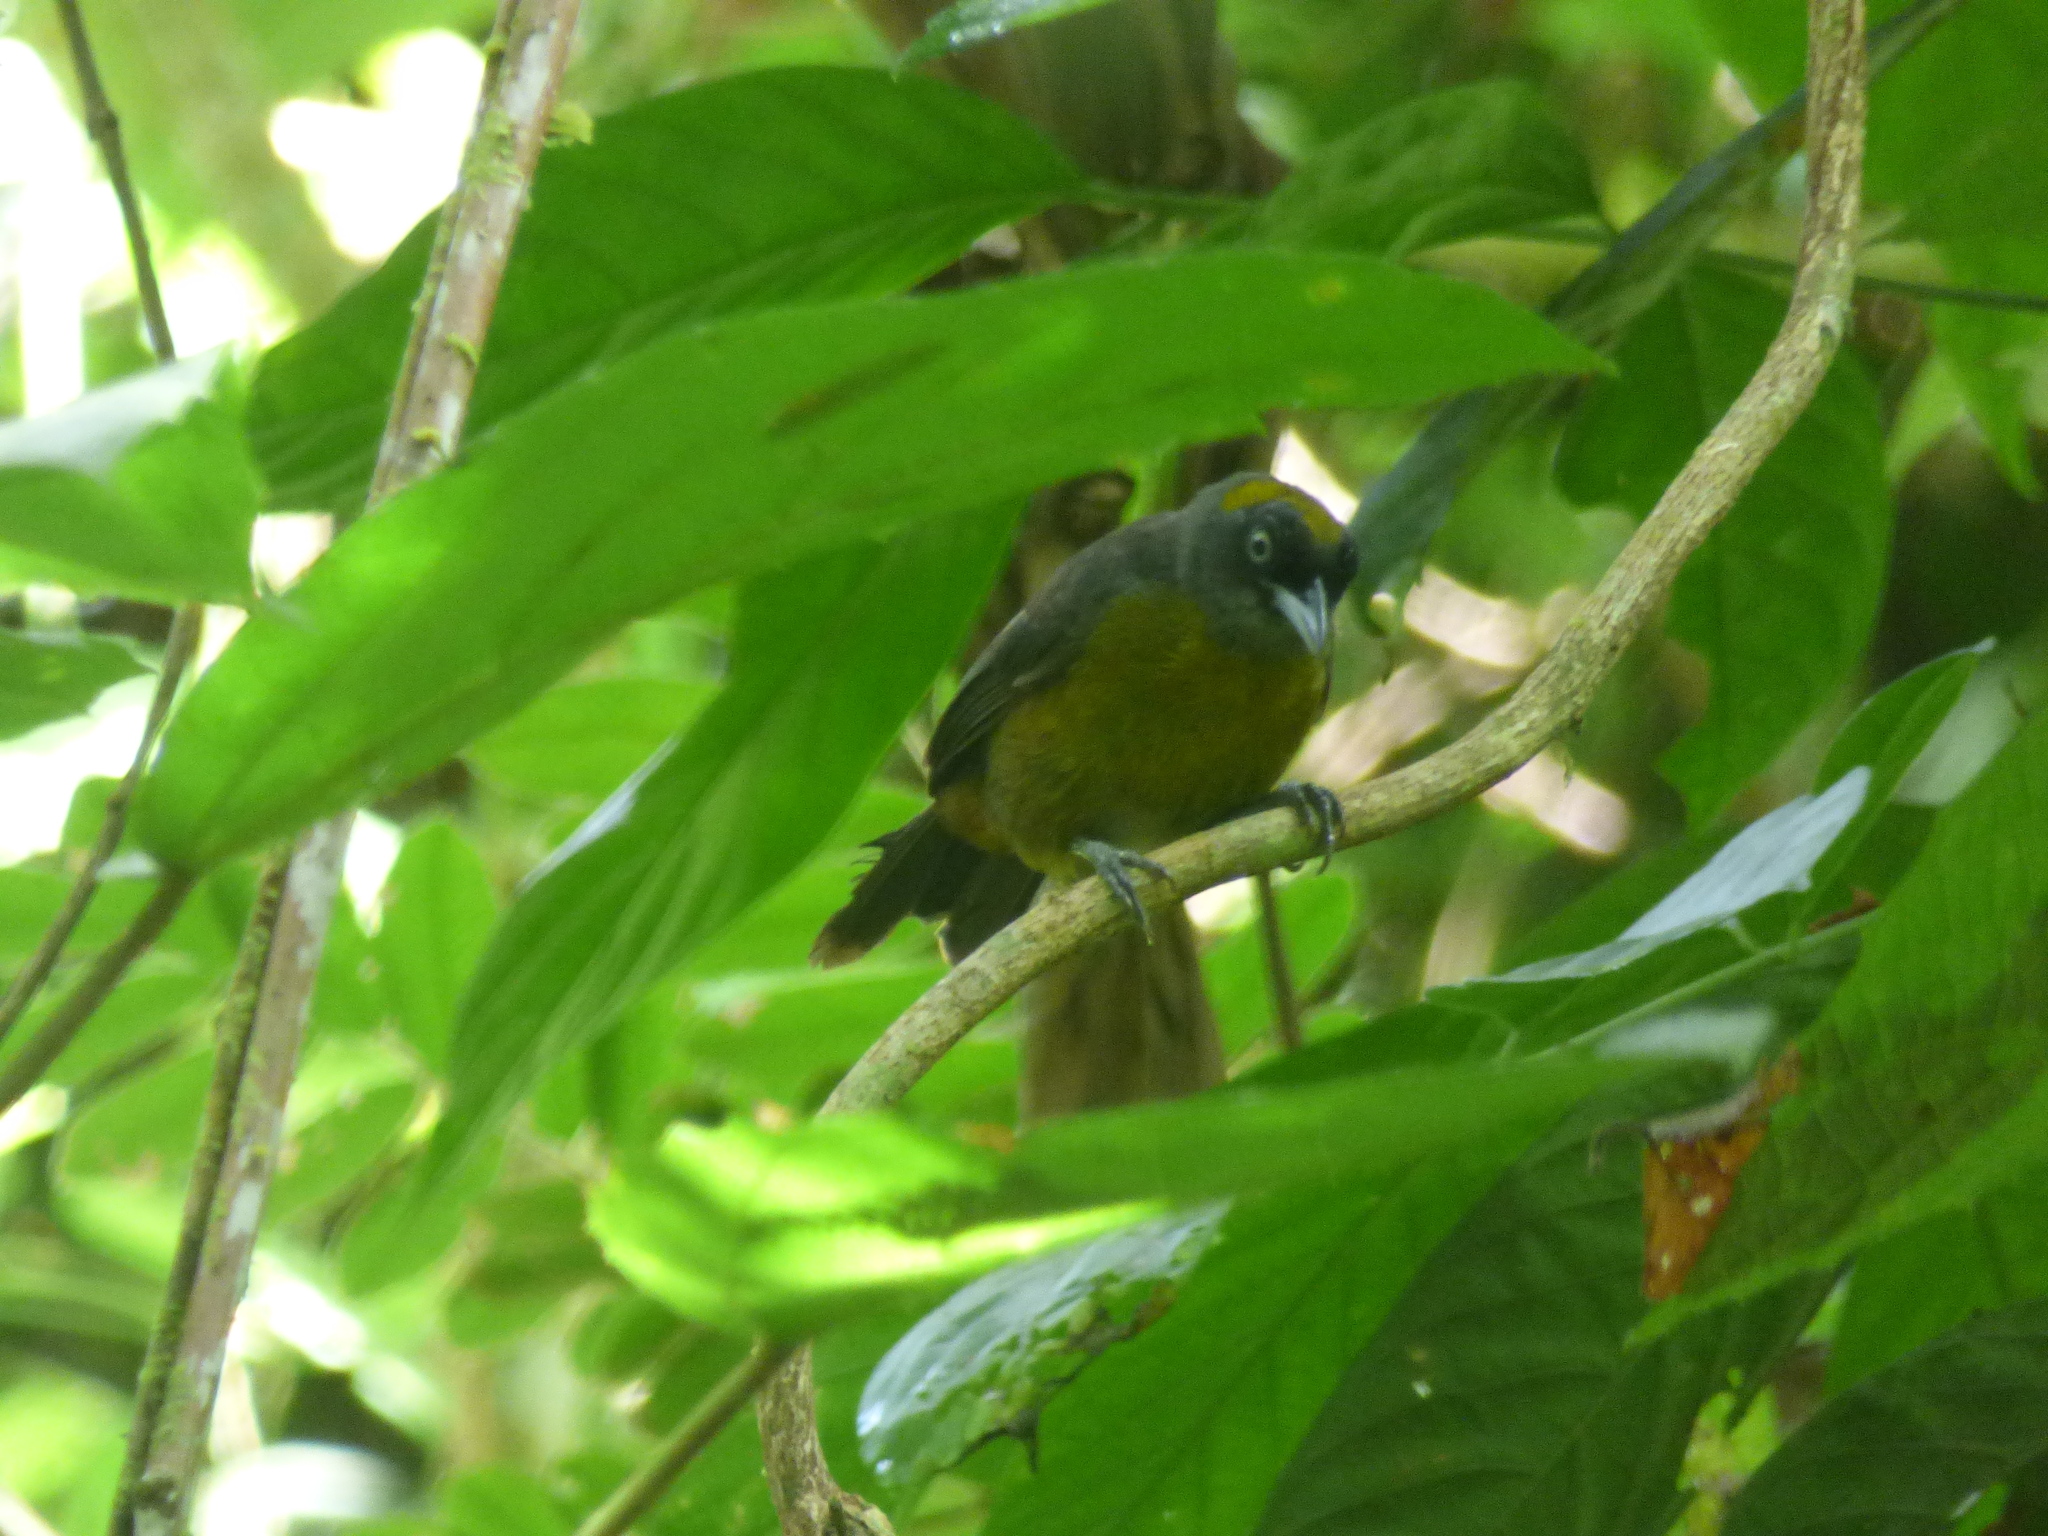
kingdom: Animalia
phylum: Chordata
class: Aves
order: Passeriformes
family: Mitrospingidae
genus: Mitrospingus
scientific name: Mitrospingus cassinii
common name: Dusky-faced tanager
